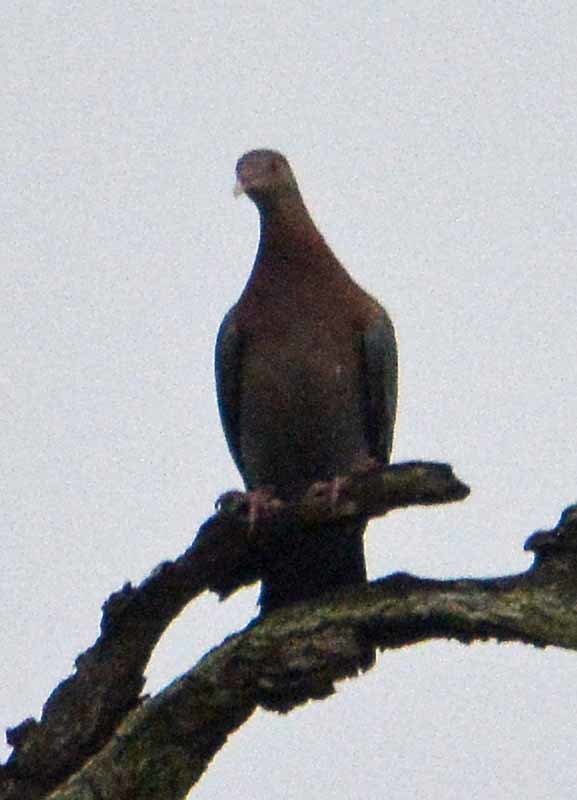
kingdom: Animalia
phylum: Chordata
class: Aves
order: Columbiformes
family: Columbidae
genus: Patagioenas
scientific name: Patagioenas flavirostris
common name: Red-billed pigeon
